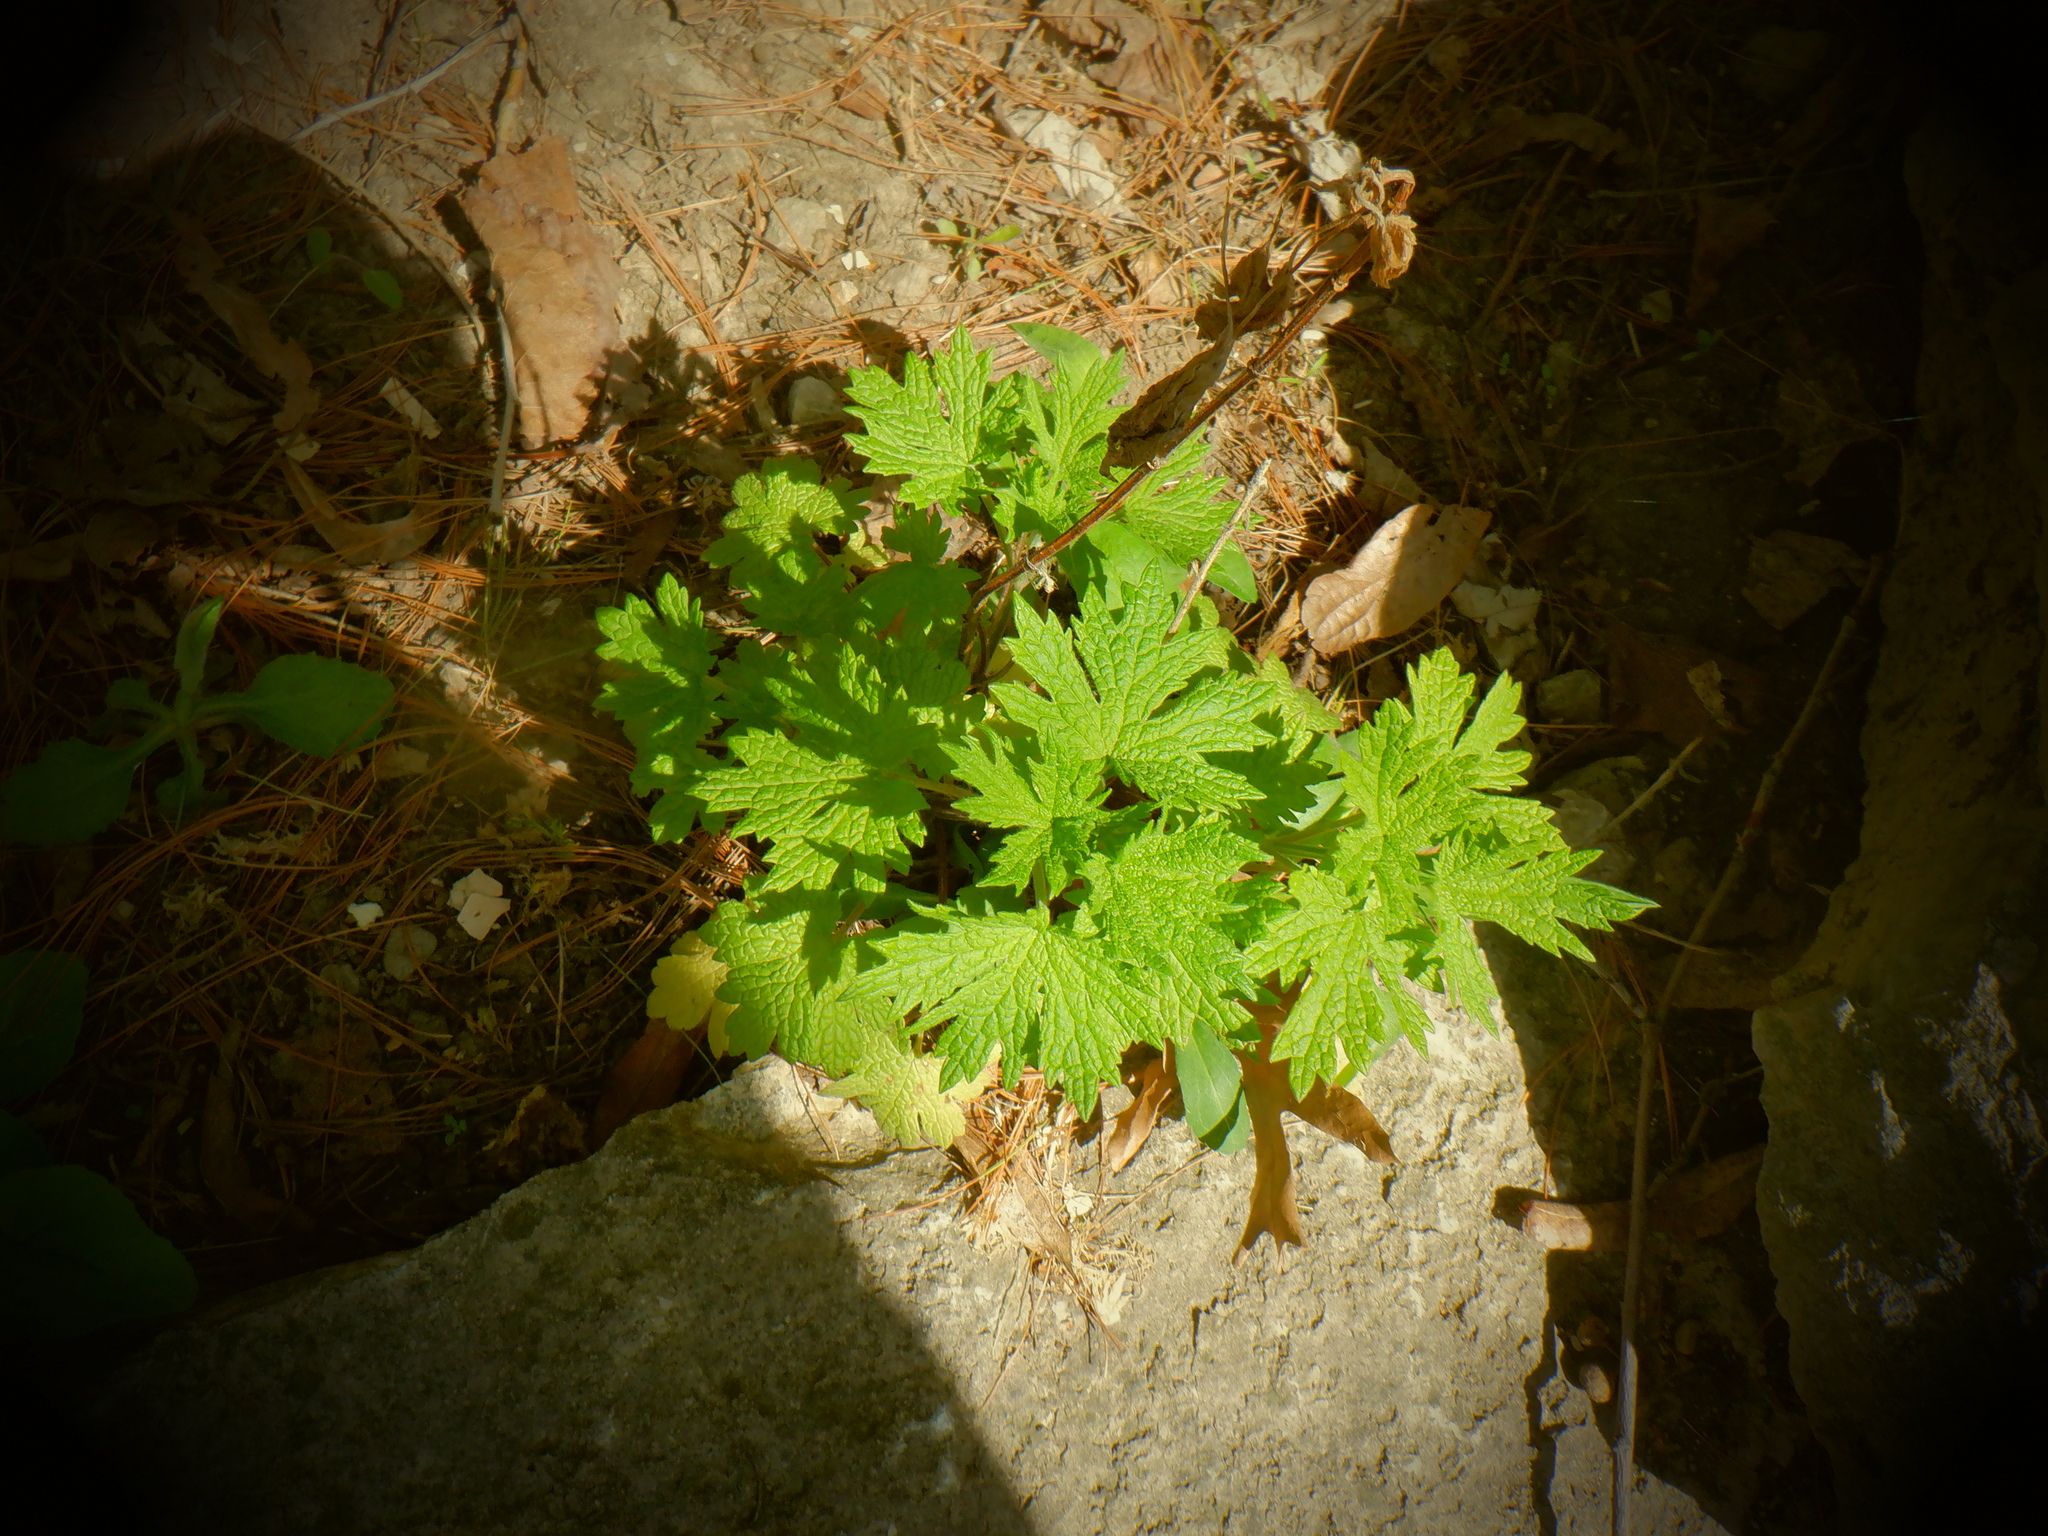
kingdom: Plantae
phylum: Tracheophyta
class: Magnoliopsida
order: Lamiales
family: Lamiaceae
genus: Leonurus
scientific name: Leonurus cardiaca
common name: Motherwort
